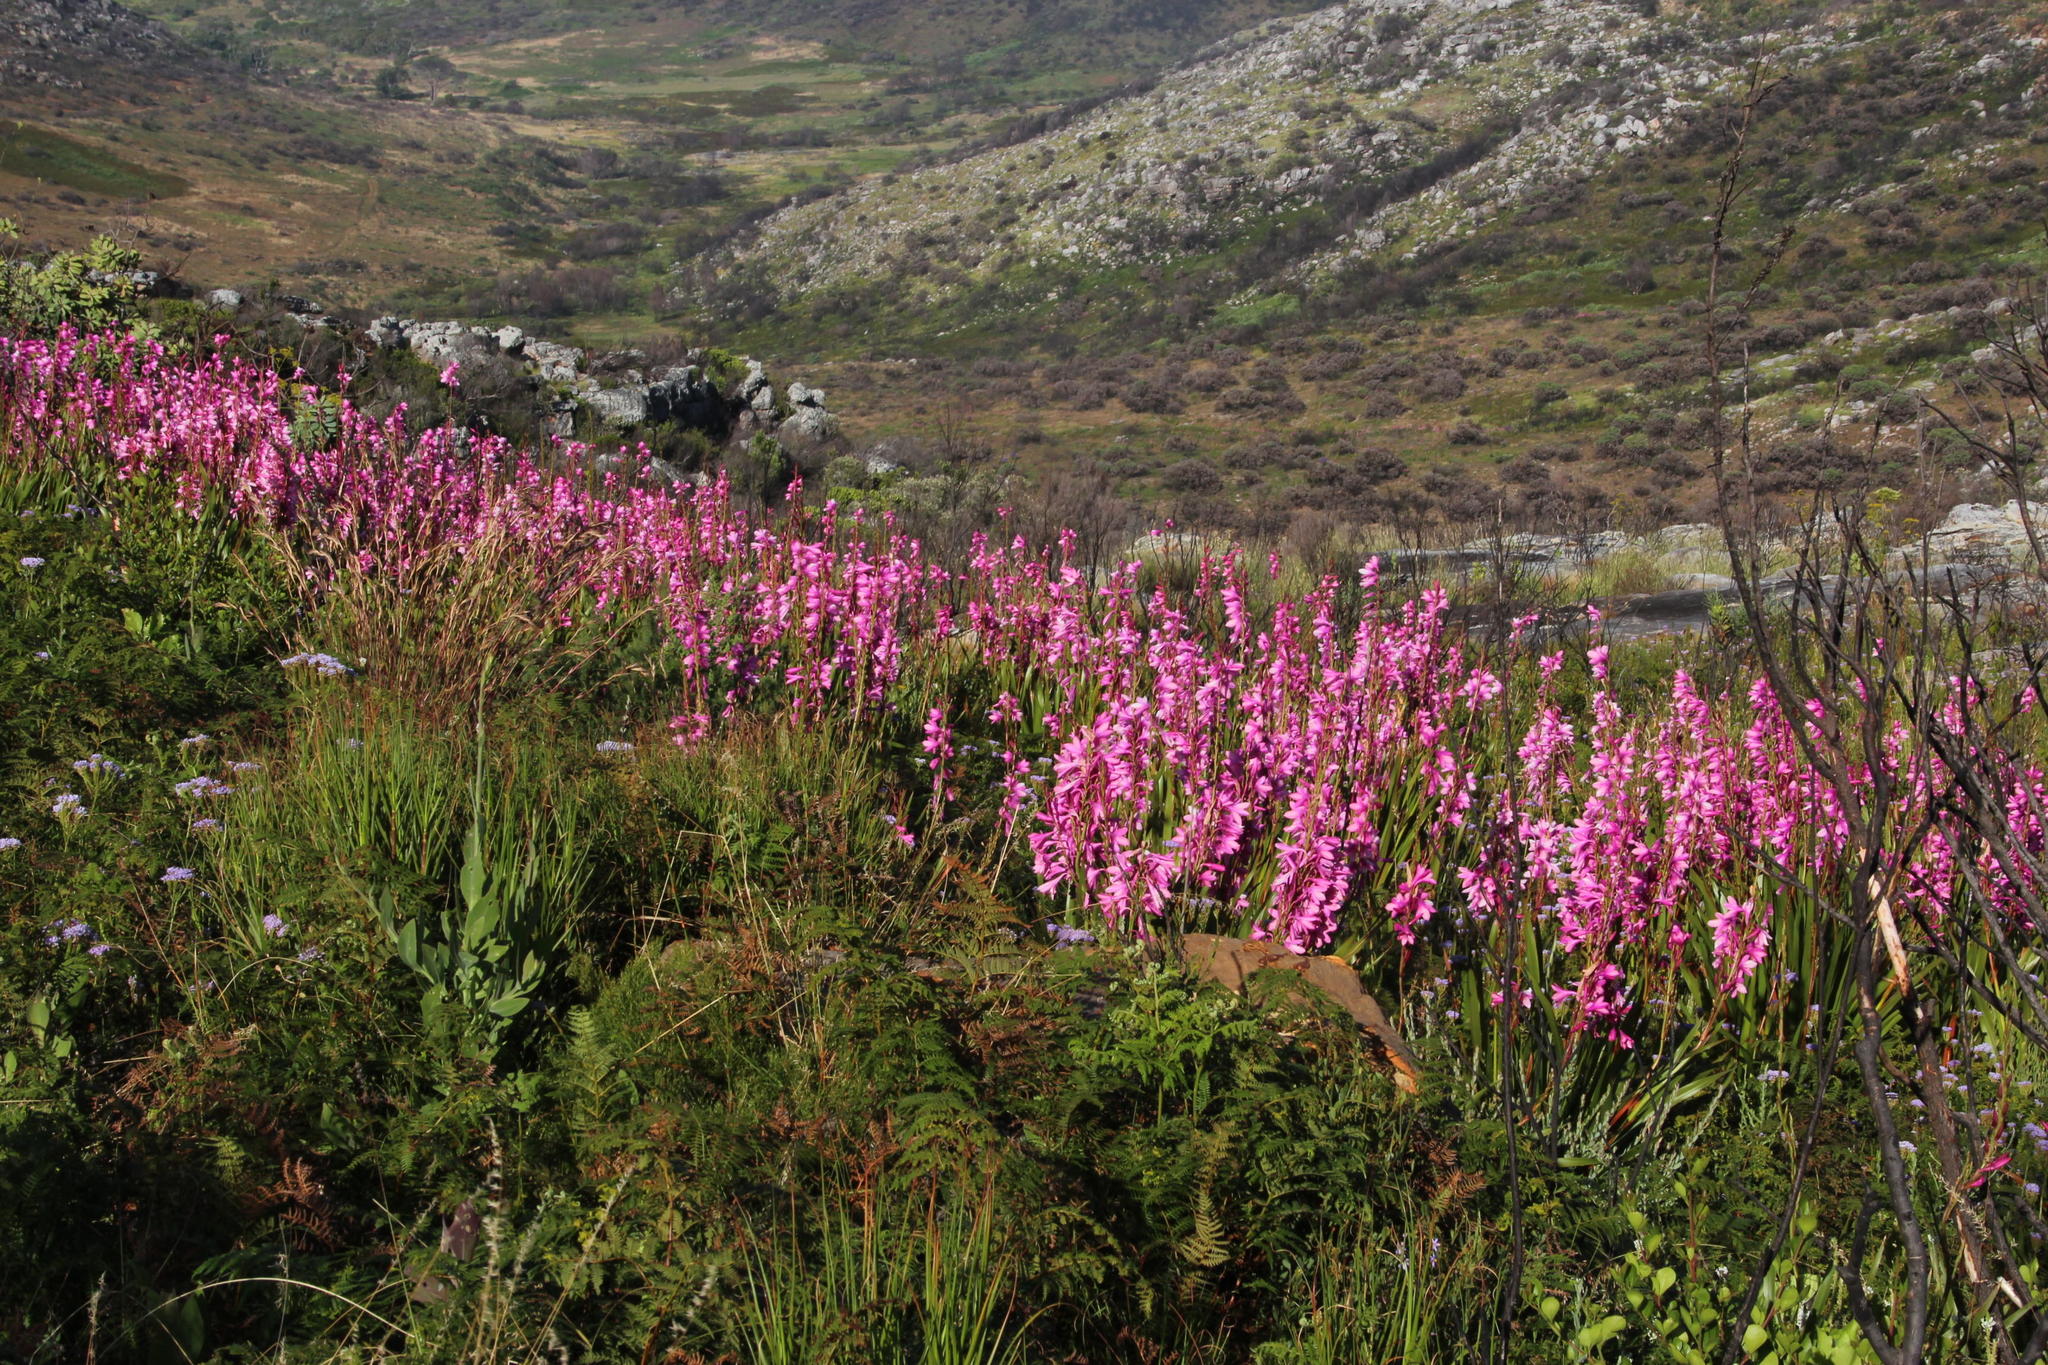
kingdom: Plantae
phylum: Tracheophyta
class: Liliopsida
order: Asparagales
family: Iridaceae
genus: Watsonia
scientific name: Watsonia borbonica
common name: Bugle-lily
